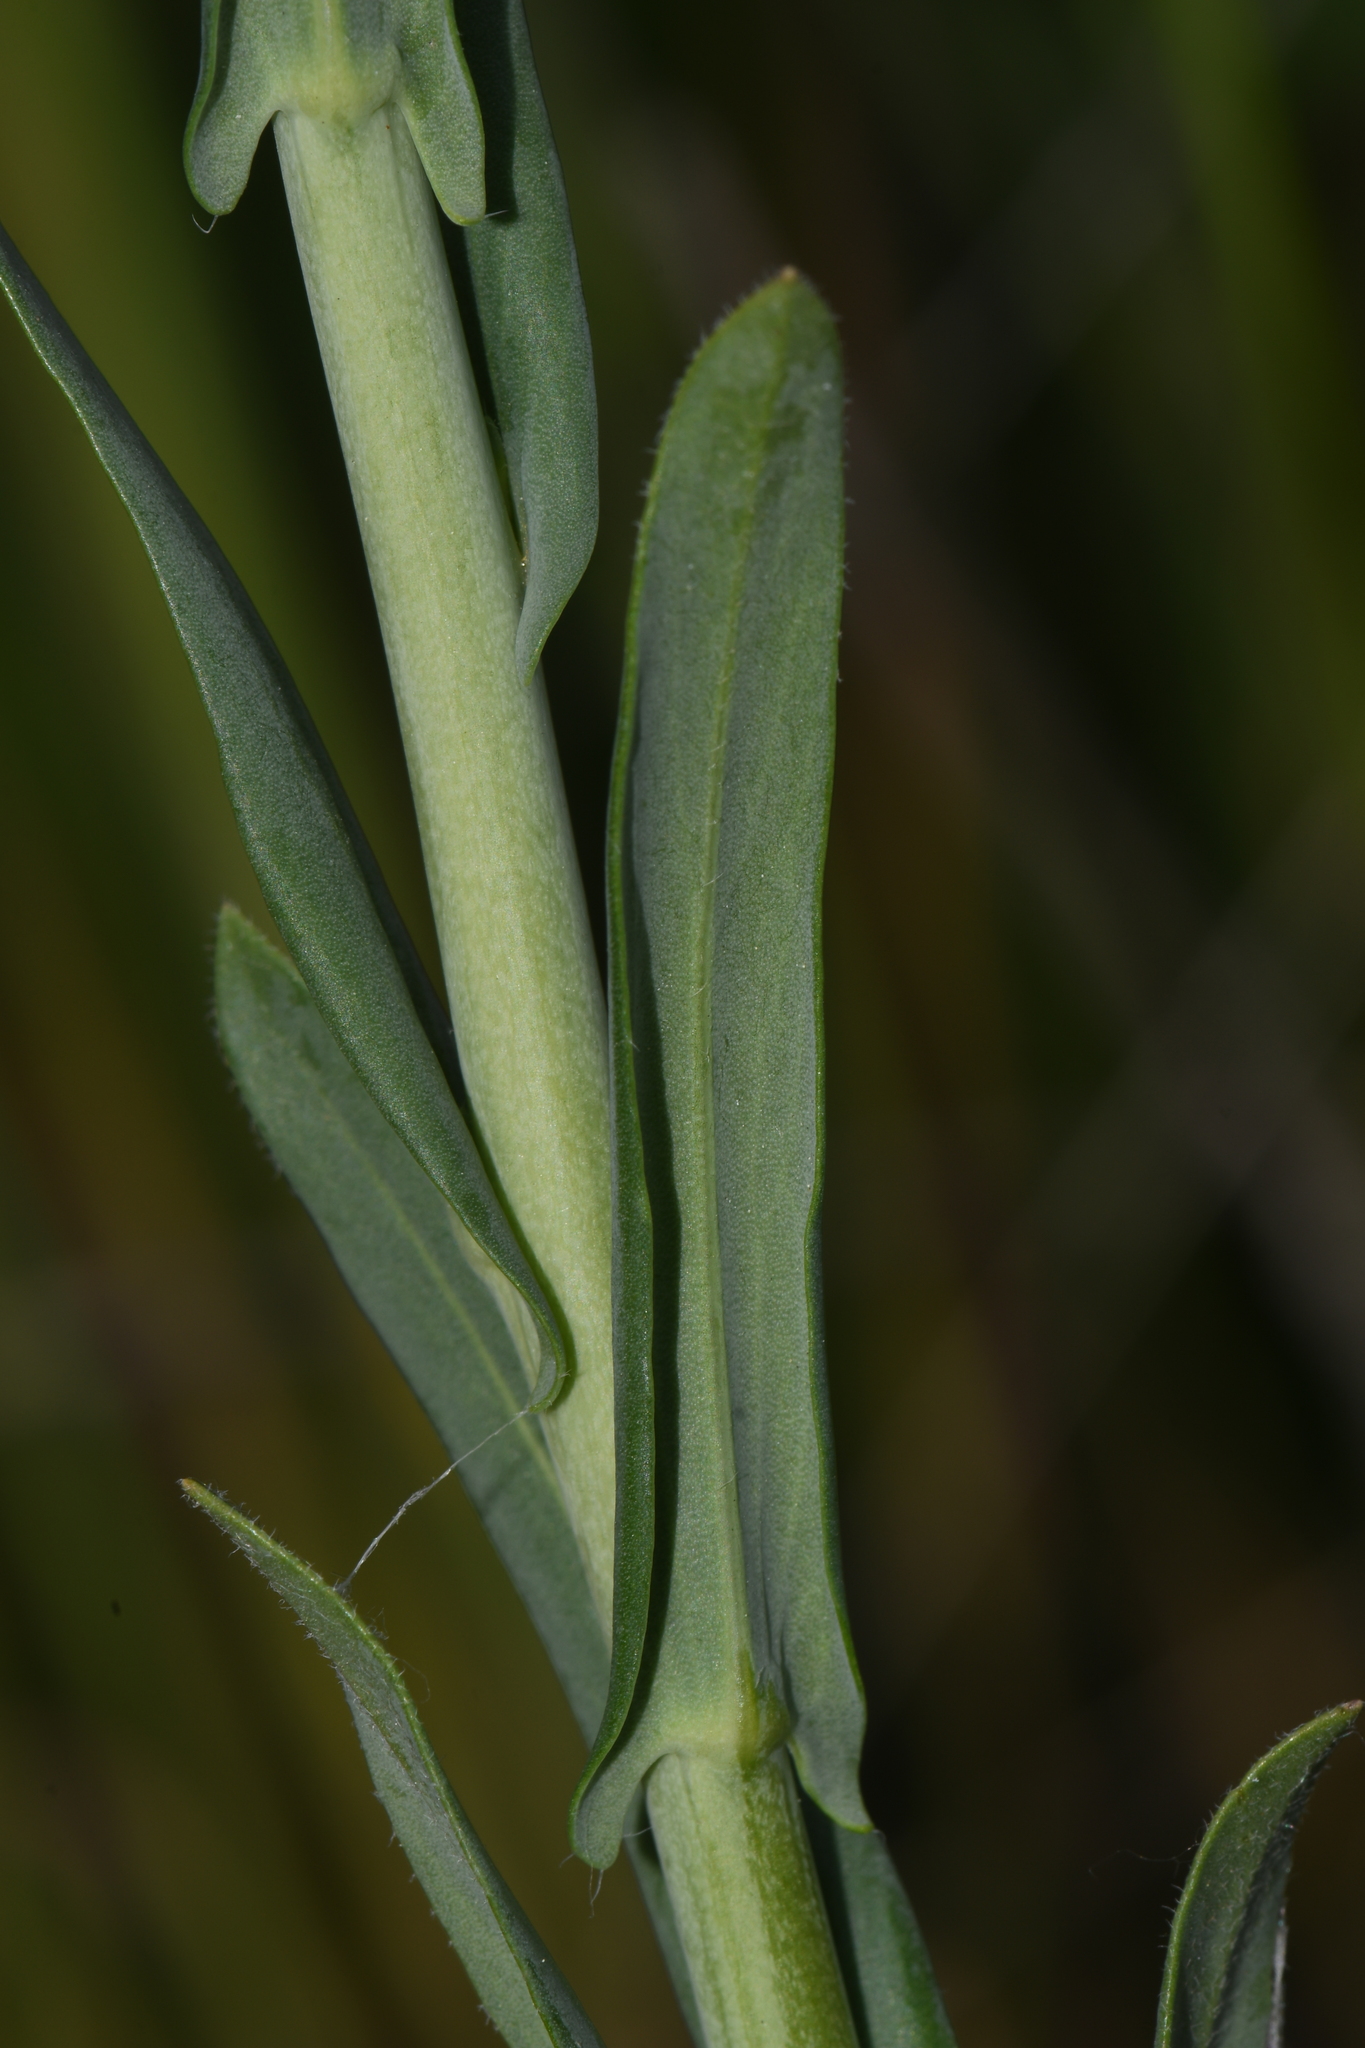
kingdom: Plantae
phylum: Tracheophyta
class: Magnoliopsida
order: Brassicales
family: Brassicaceae
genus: Boechera
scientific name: Boechera grahamii
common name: Graham's rockcress
